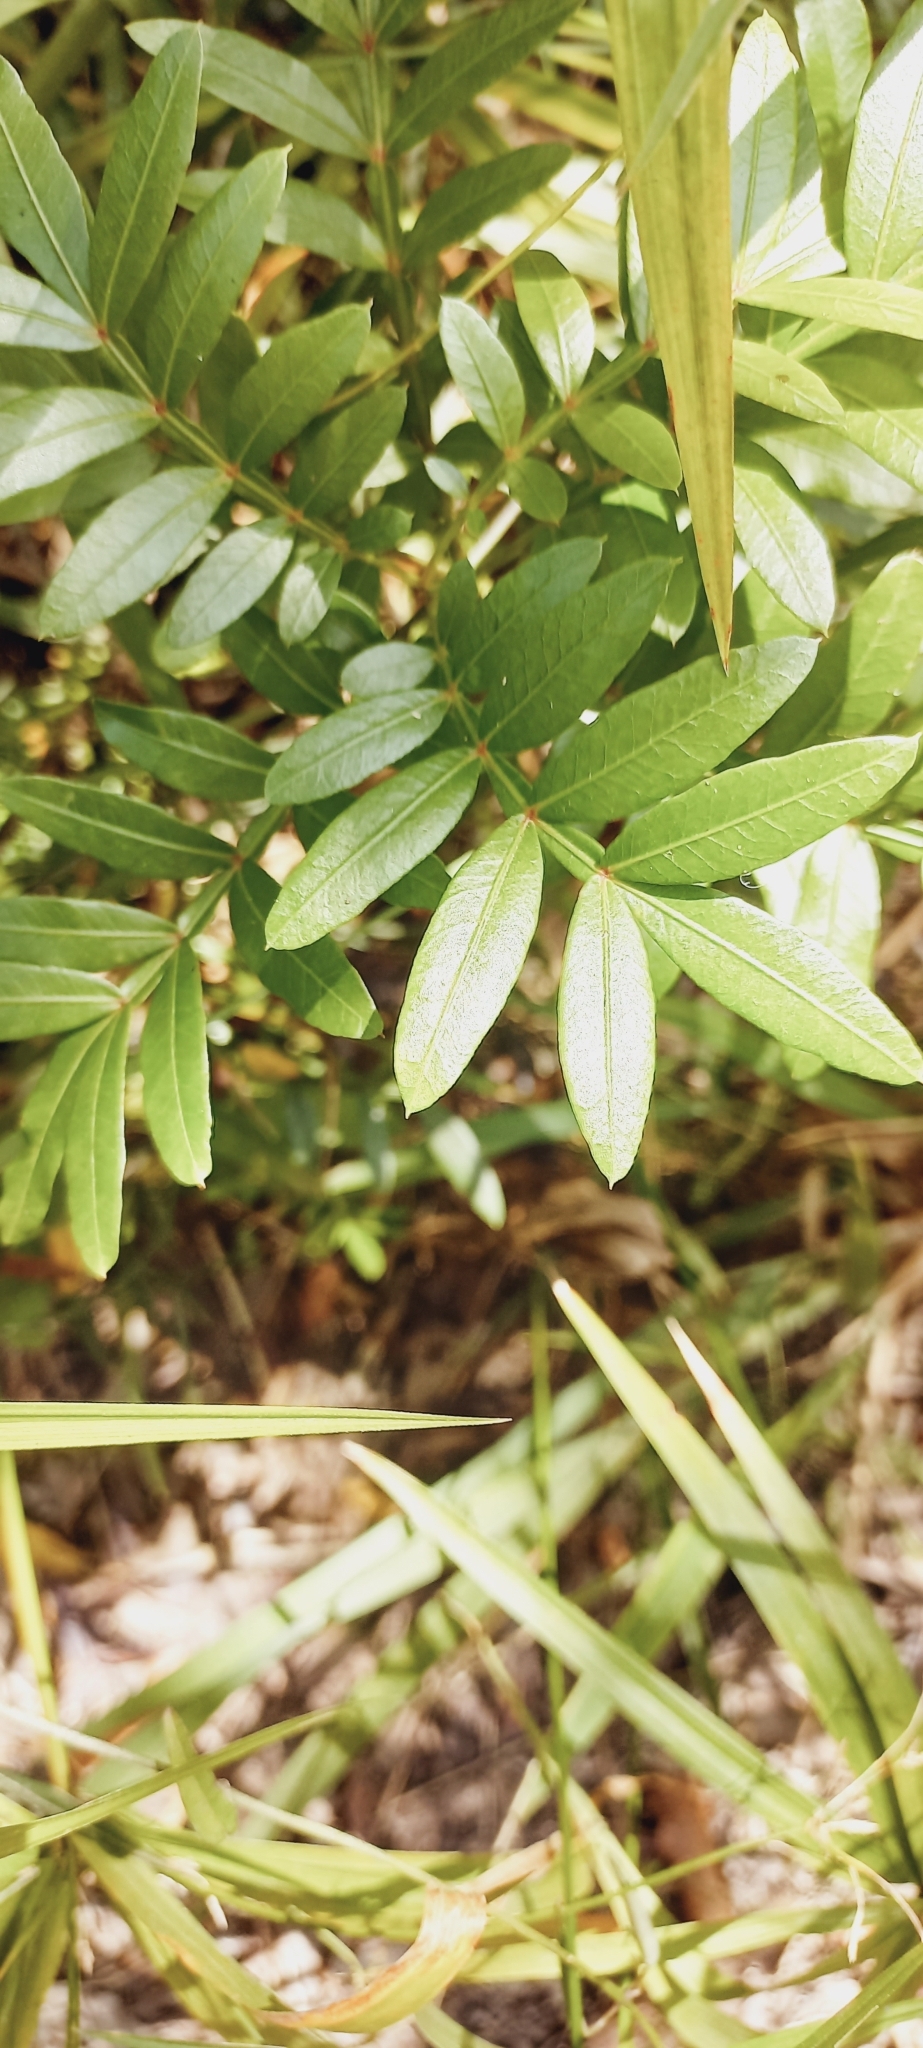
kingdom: Plantae
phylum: Tracheophyta
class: Magnoliopsida
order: Sapindales
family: Anacardiaceae
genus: Loxostylis
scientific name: Loxostylis alata
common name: Wild peppertree
